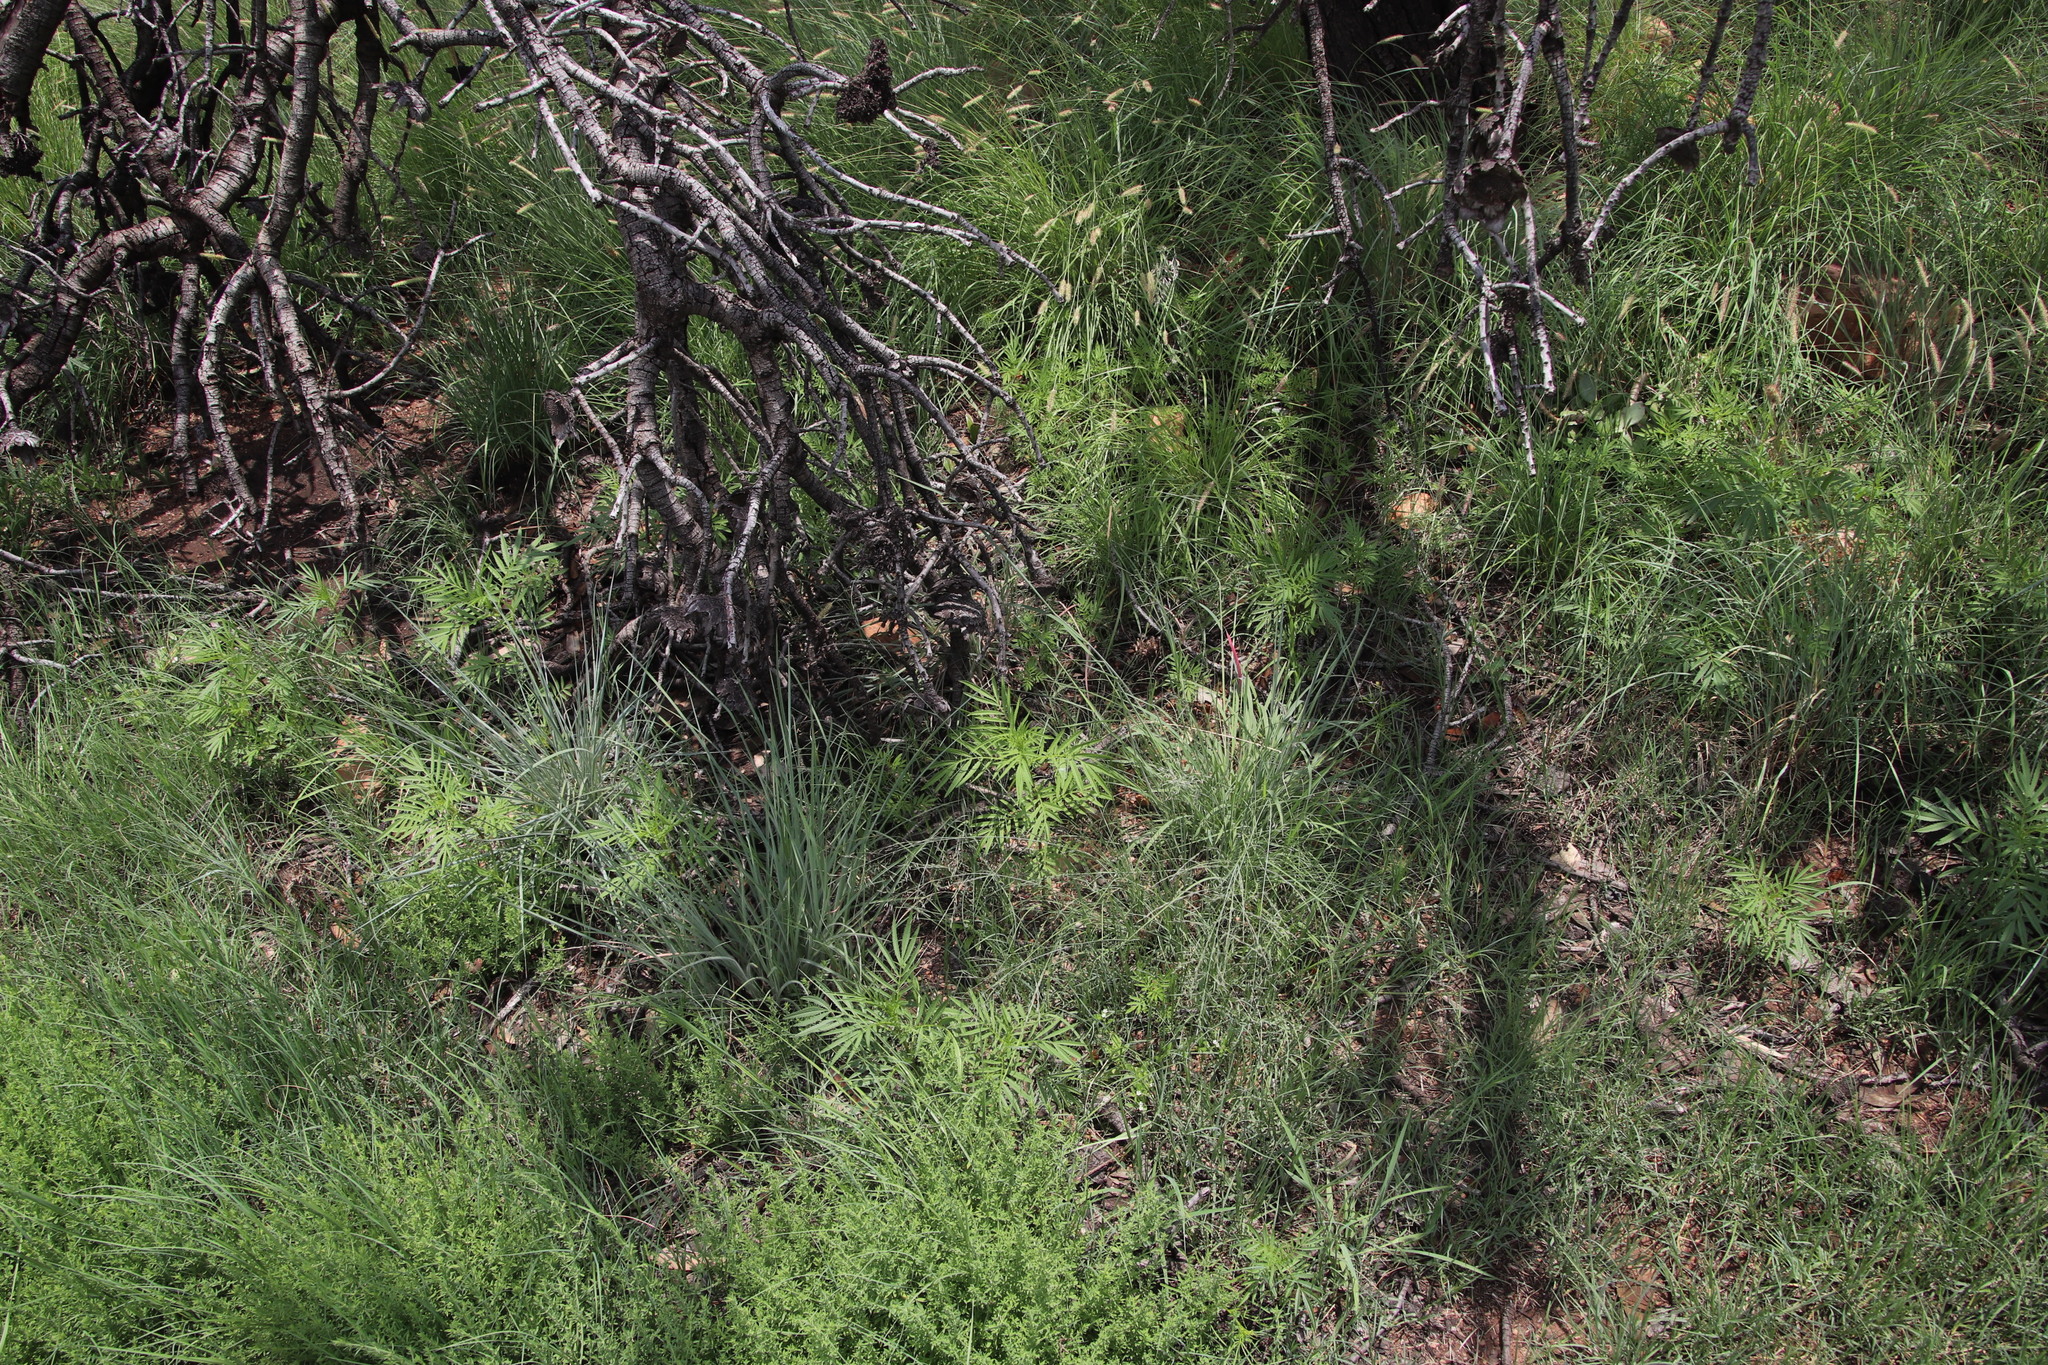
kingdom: Plantae
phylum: Tracheophyta
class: Magnoliopsida
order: Asterales
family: Asteraceae
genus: Tagetes
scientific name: Tagetes minuta
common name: Muster john henry
